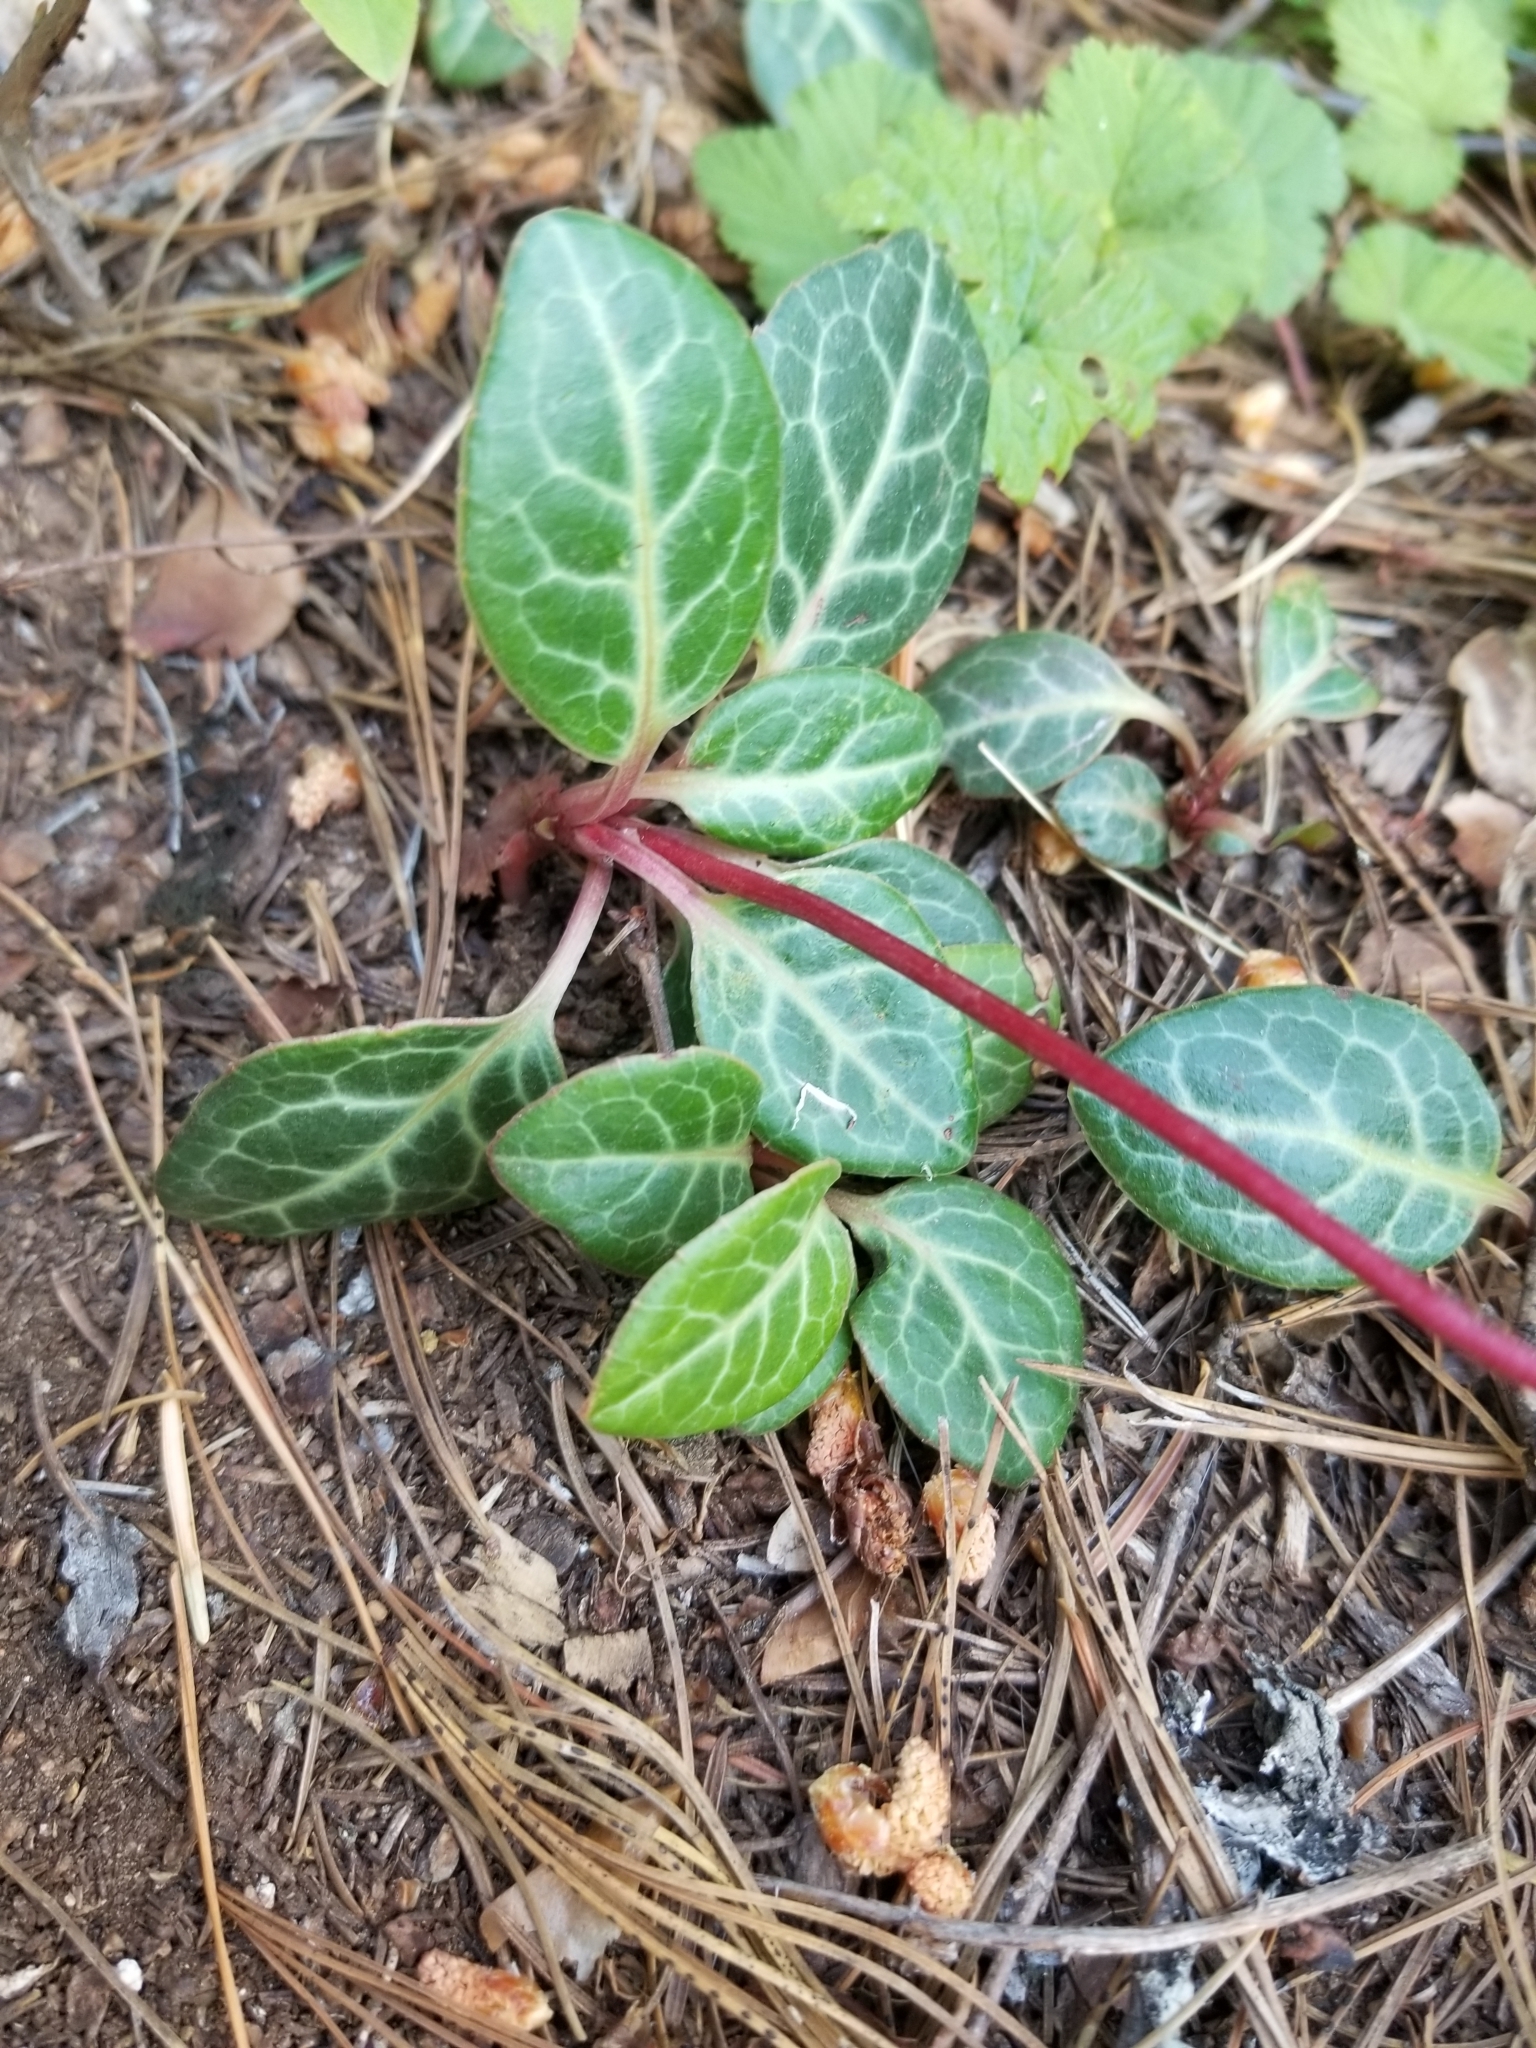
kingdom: Plantae
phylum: Tracheophyta
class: Magnoliopsida
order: Ericales
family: Ericaceae
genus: Pyrola
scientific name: Pyrola picta
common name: White-vein wintergreen
